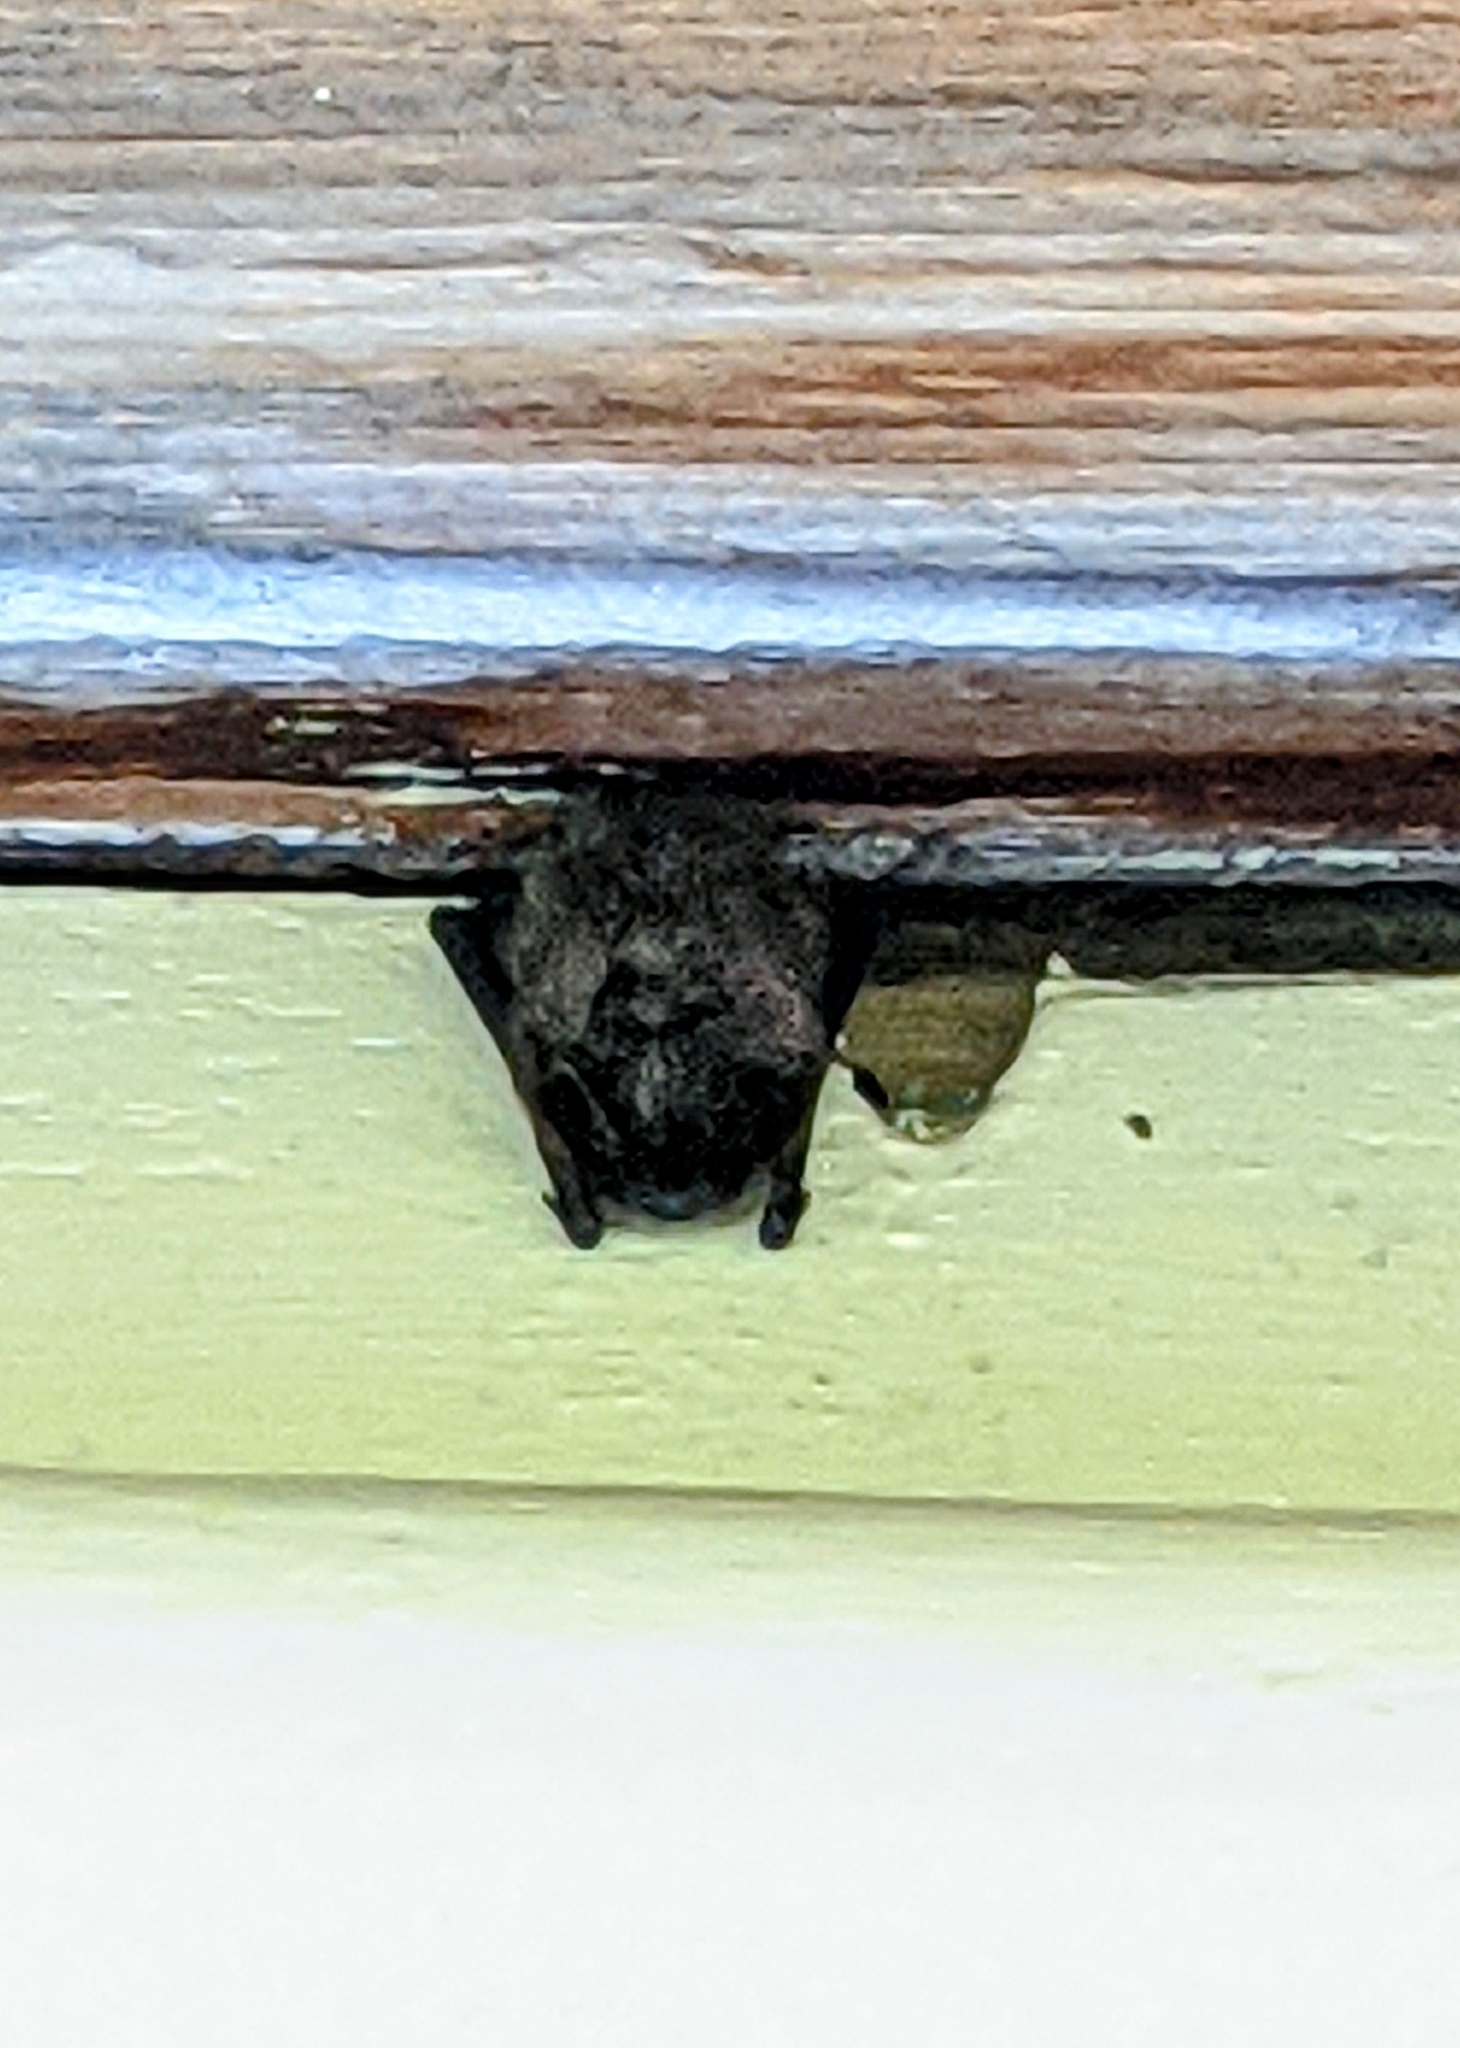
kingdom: Animalia
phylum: Chordata
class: Mammalia
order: Chiroptera
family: Vespertilionidae
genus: Lasionycteris
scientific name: Lasionycteris noctivagans
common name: Silver-haired bat
